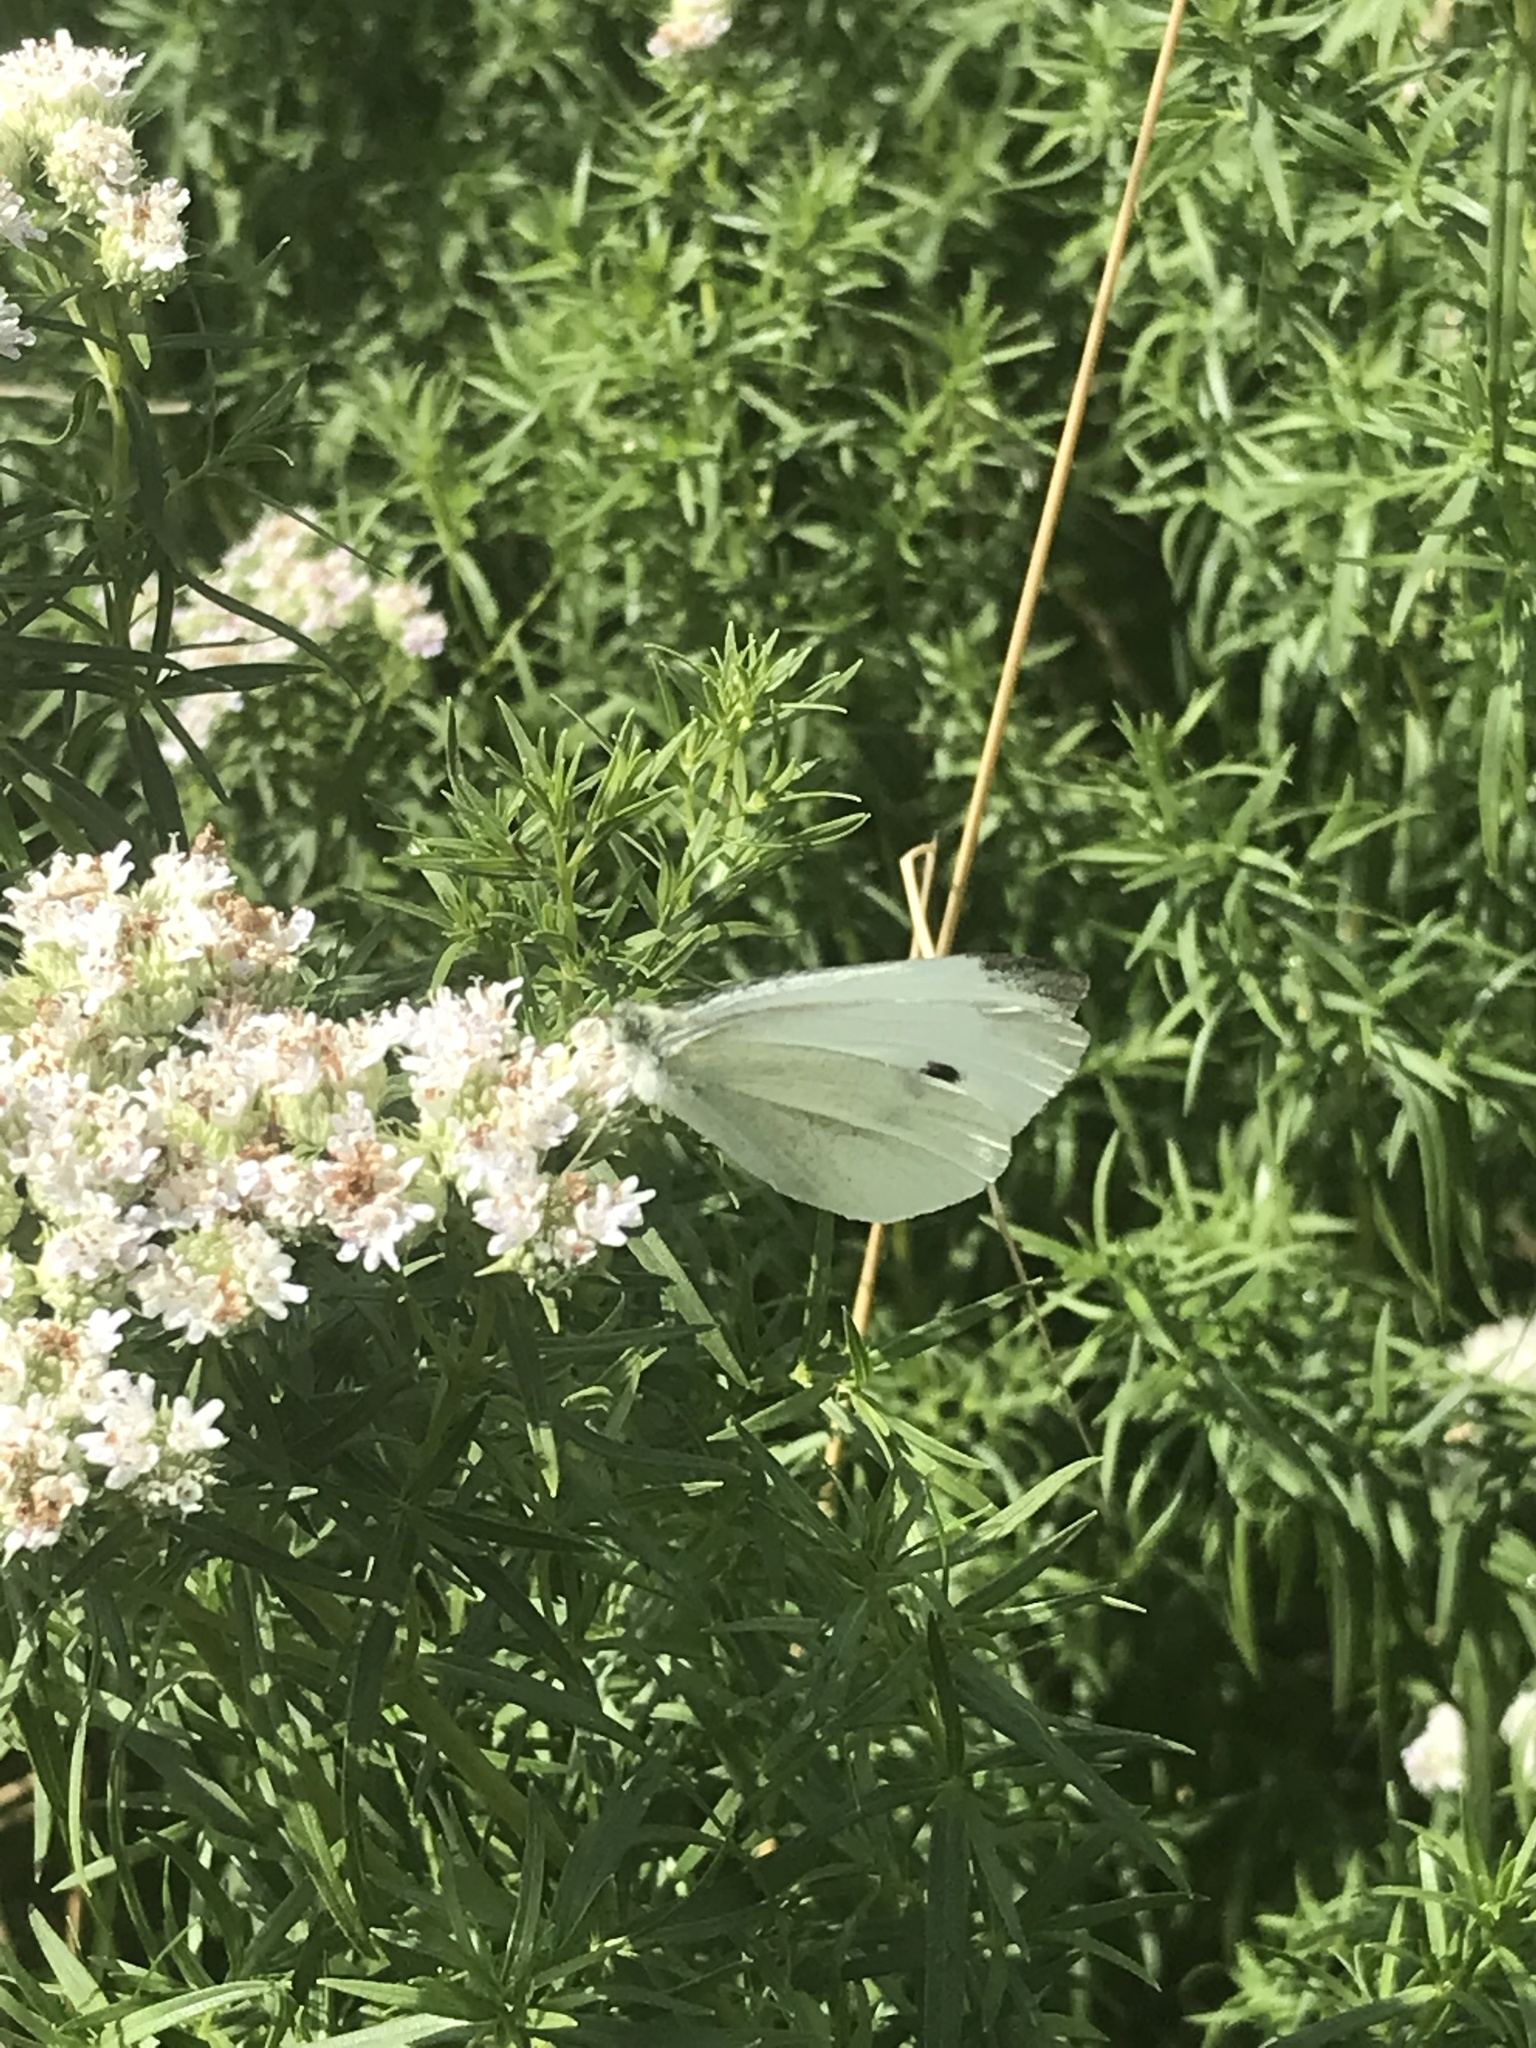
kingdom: Animalia
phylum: Arthropoda
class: Insecta
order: Lepidoptera
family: Pieridae
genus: Pieris
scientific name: Pieris rapae
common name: Small white
